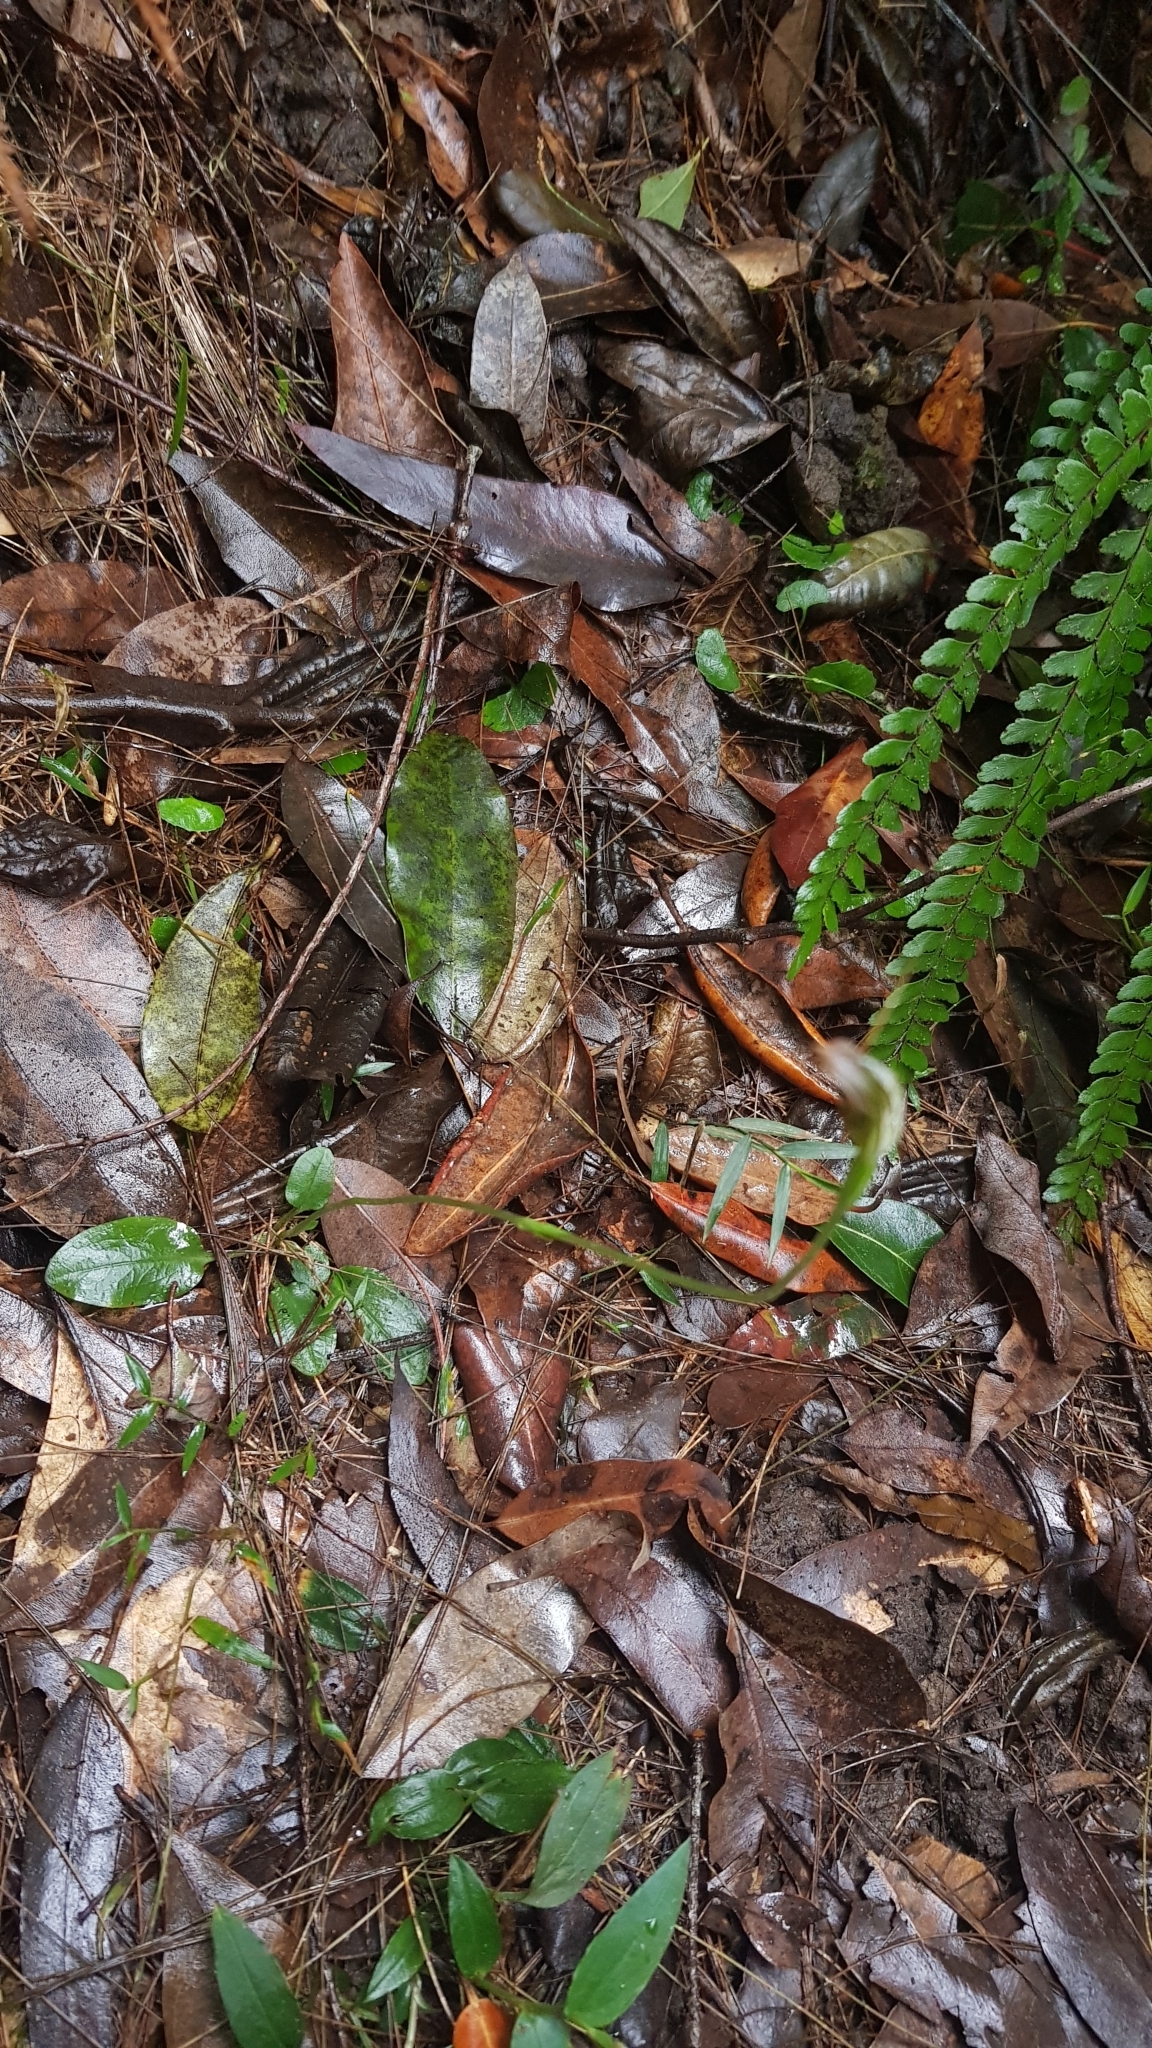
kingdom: Plantae
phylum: Tracheophyta
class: Liliopsida
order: Asparagales
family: Orchidaceae
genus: Pterostylis
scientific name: Pterostylis erecta
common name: Upright maroonhood
